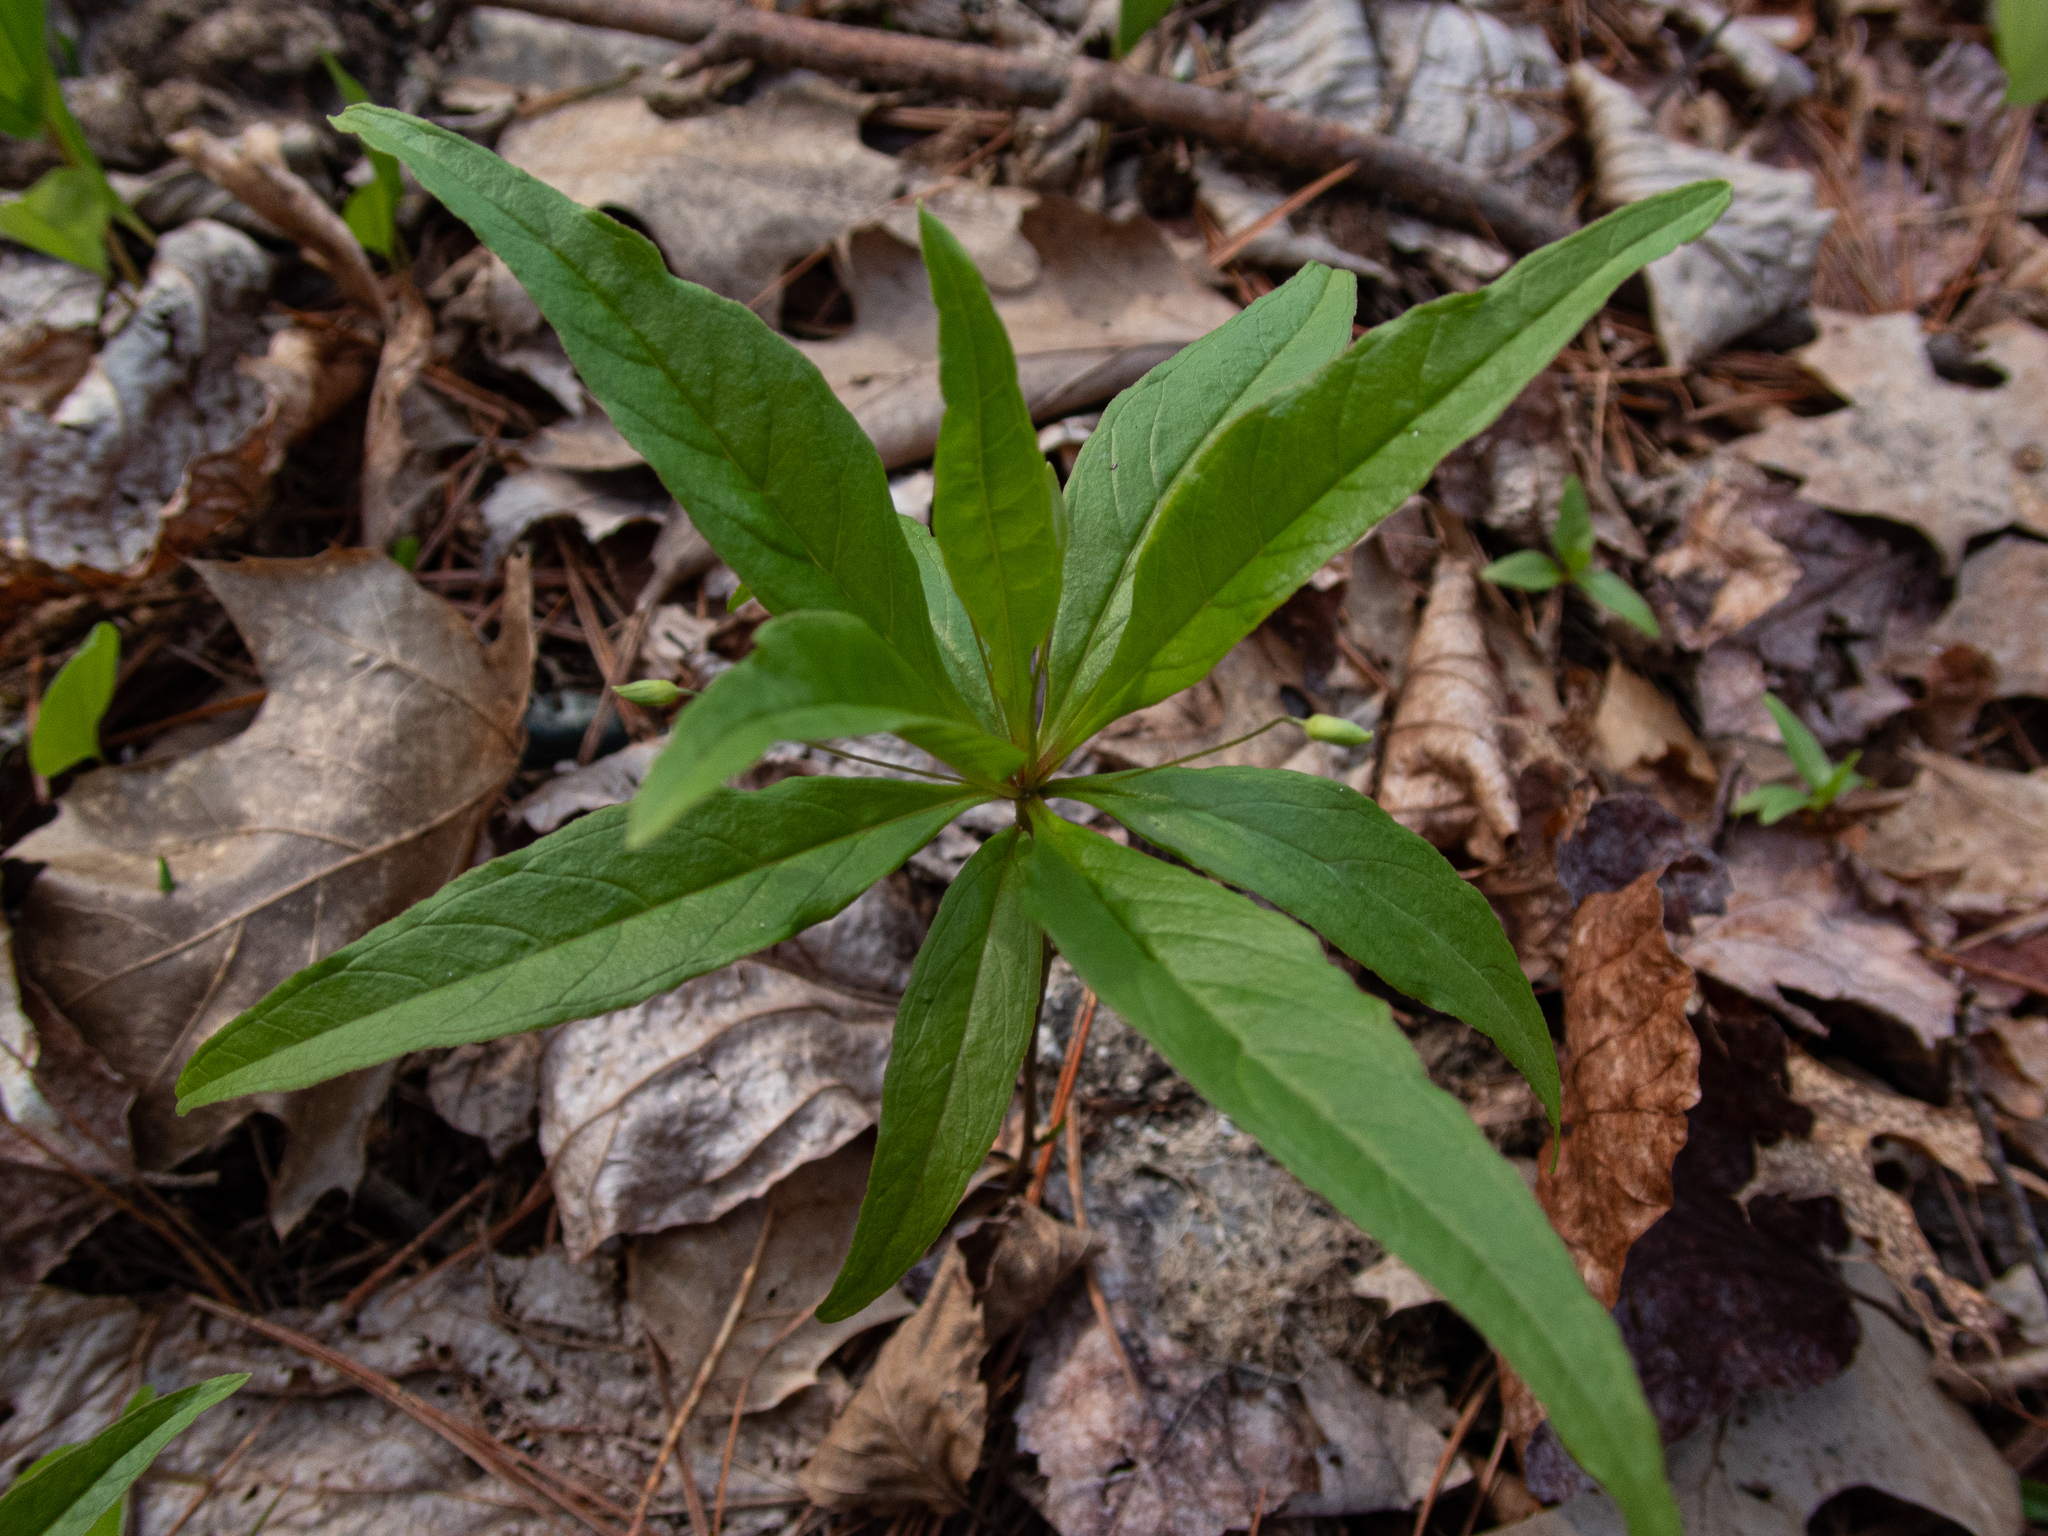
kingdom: Plantae
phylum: Tracheophyta
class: Magnoliopsida
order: Ericales
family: Primulaceae
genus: Lysimachia
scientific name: Lysimachia borealis
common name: American starflower
